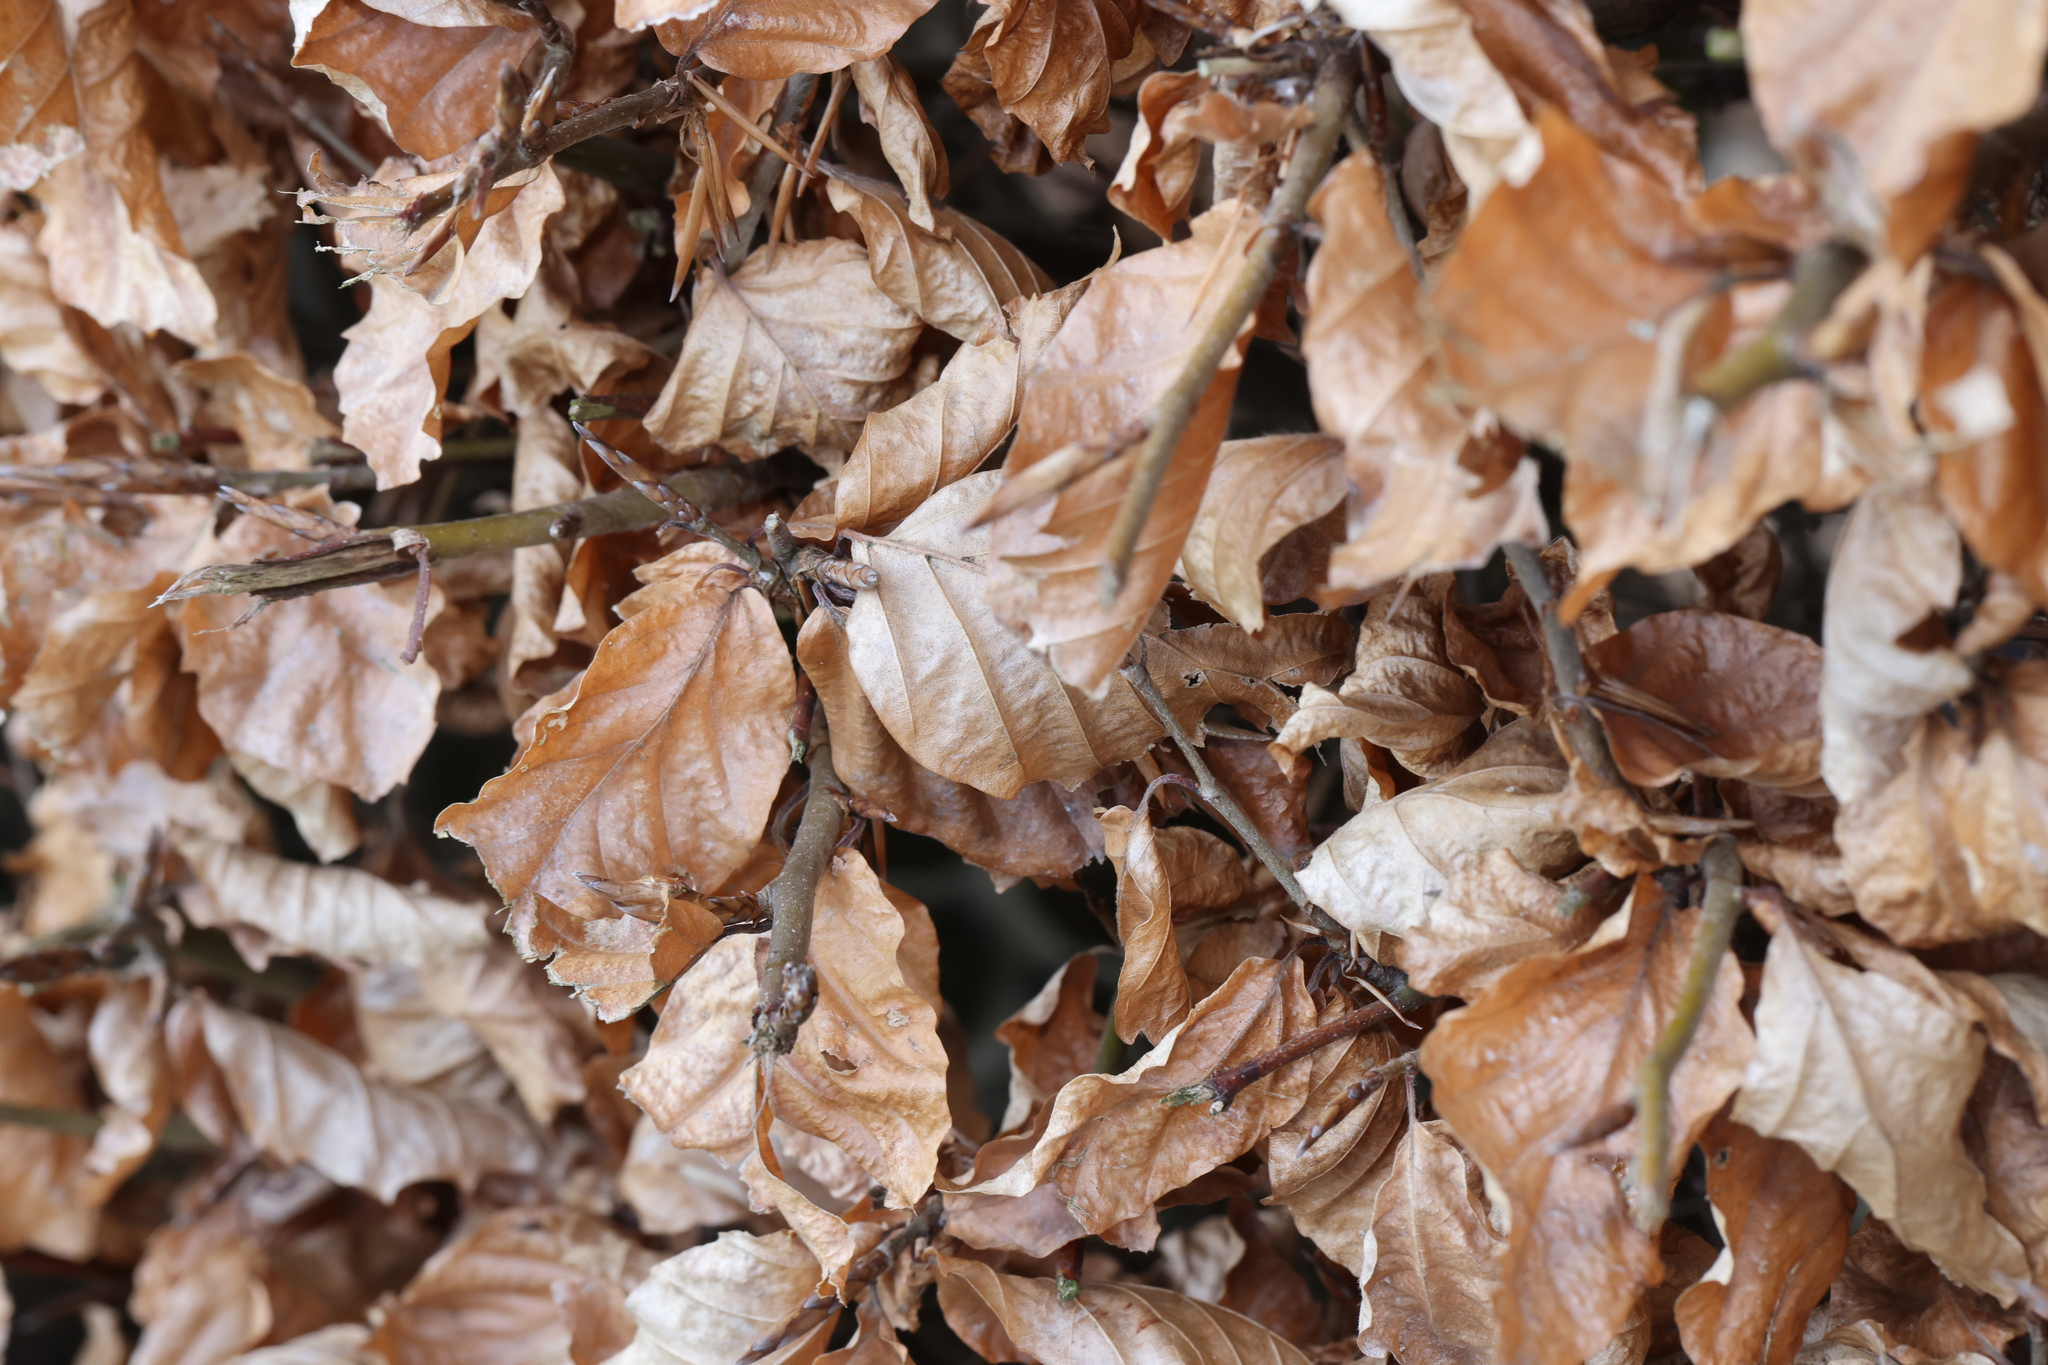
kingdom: Plantae
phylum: Tracheophyta
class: Magnoliopsida
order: Fagales
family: Fagaceae
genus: Fagus
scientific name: Fagus sylvatica
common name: Beech
